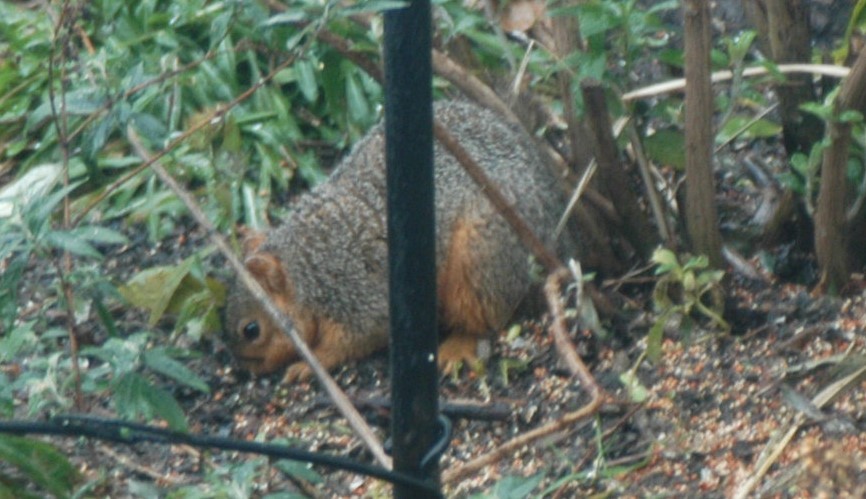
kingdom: Animalia
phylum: Chordata
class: Mammalia
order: Rodentia
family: Sciuridae
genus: Sciurus
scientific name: Sciurus niger
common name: Fox squirrel
